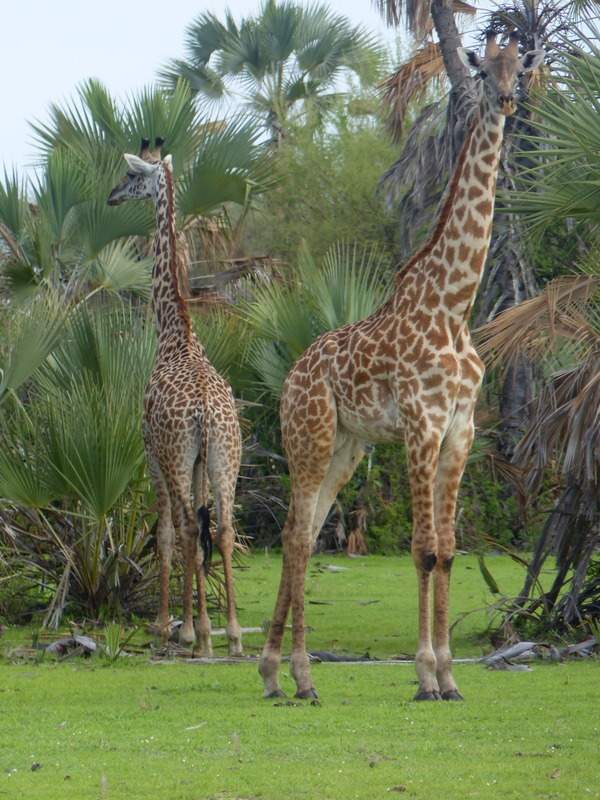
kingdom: Animalia
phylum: Chordata
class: Mammalia
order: Artiodactyla
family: Giraffidae
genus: Giraffa
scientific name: Giraffa tippelskirchi
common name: Masai giraffe
